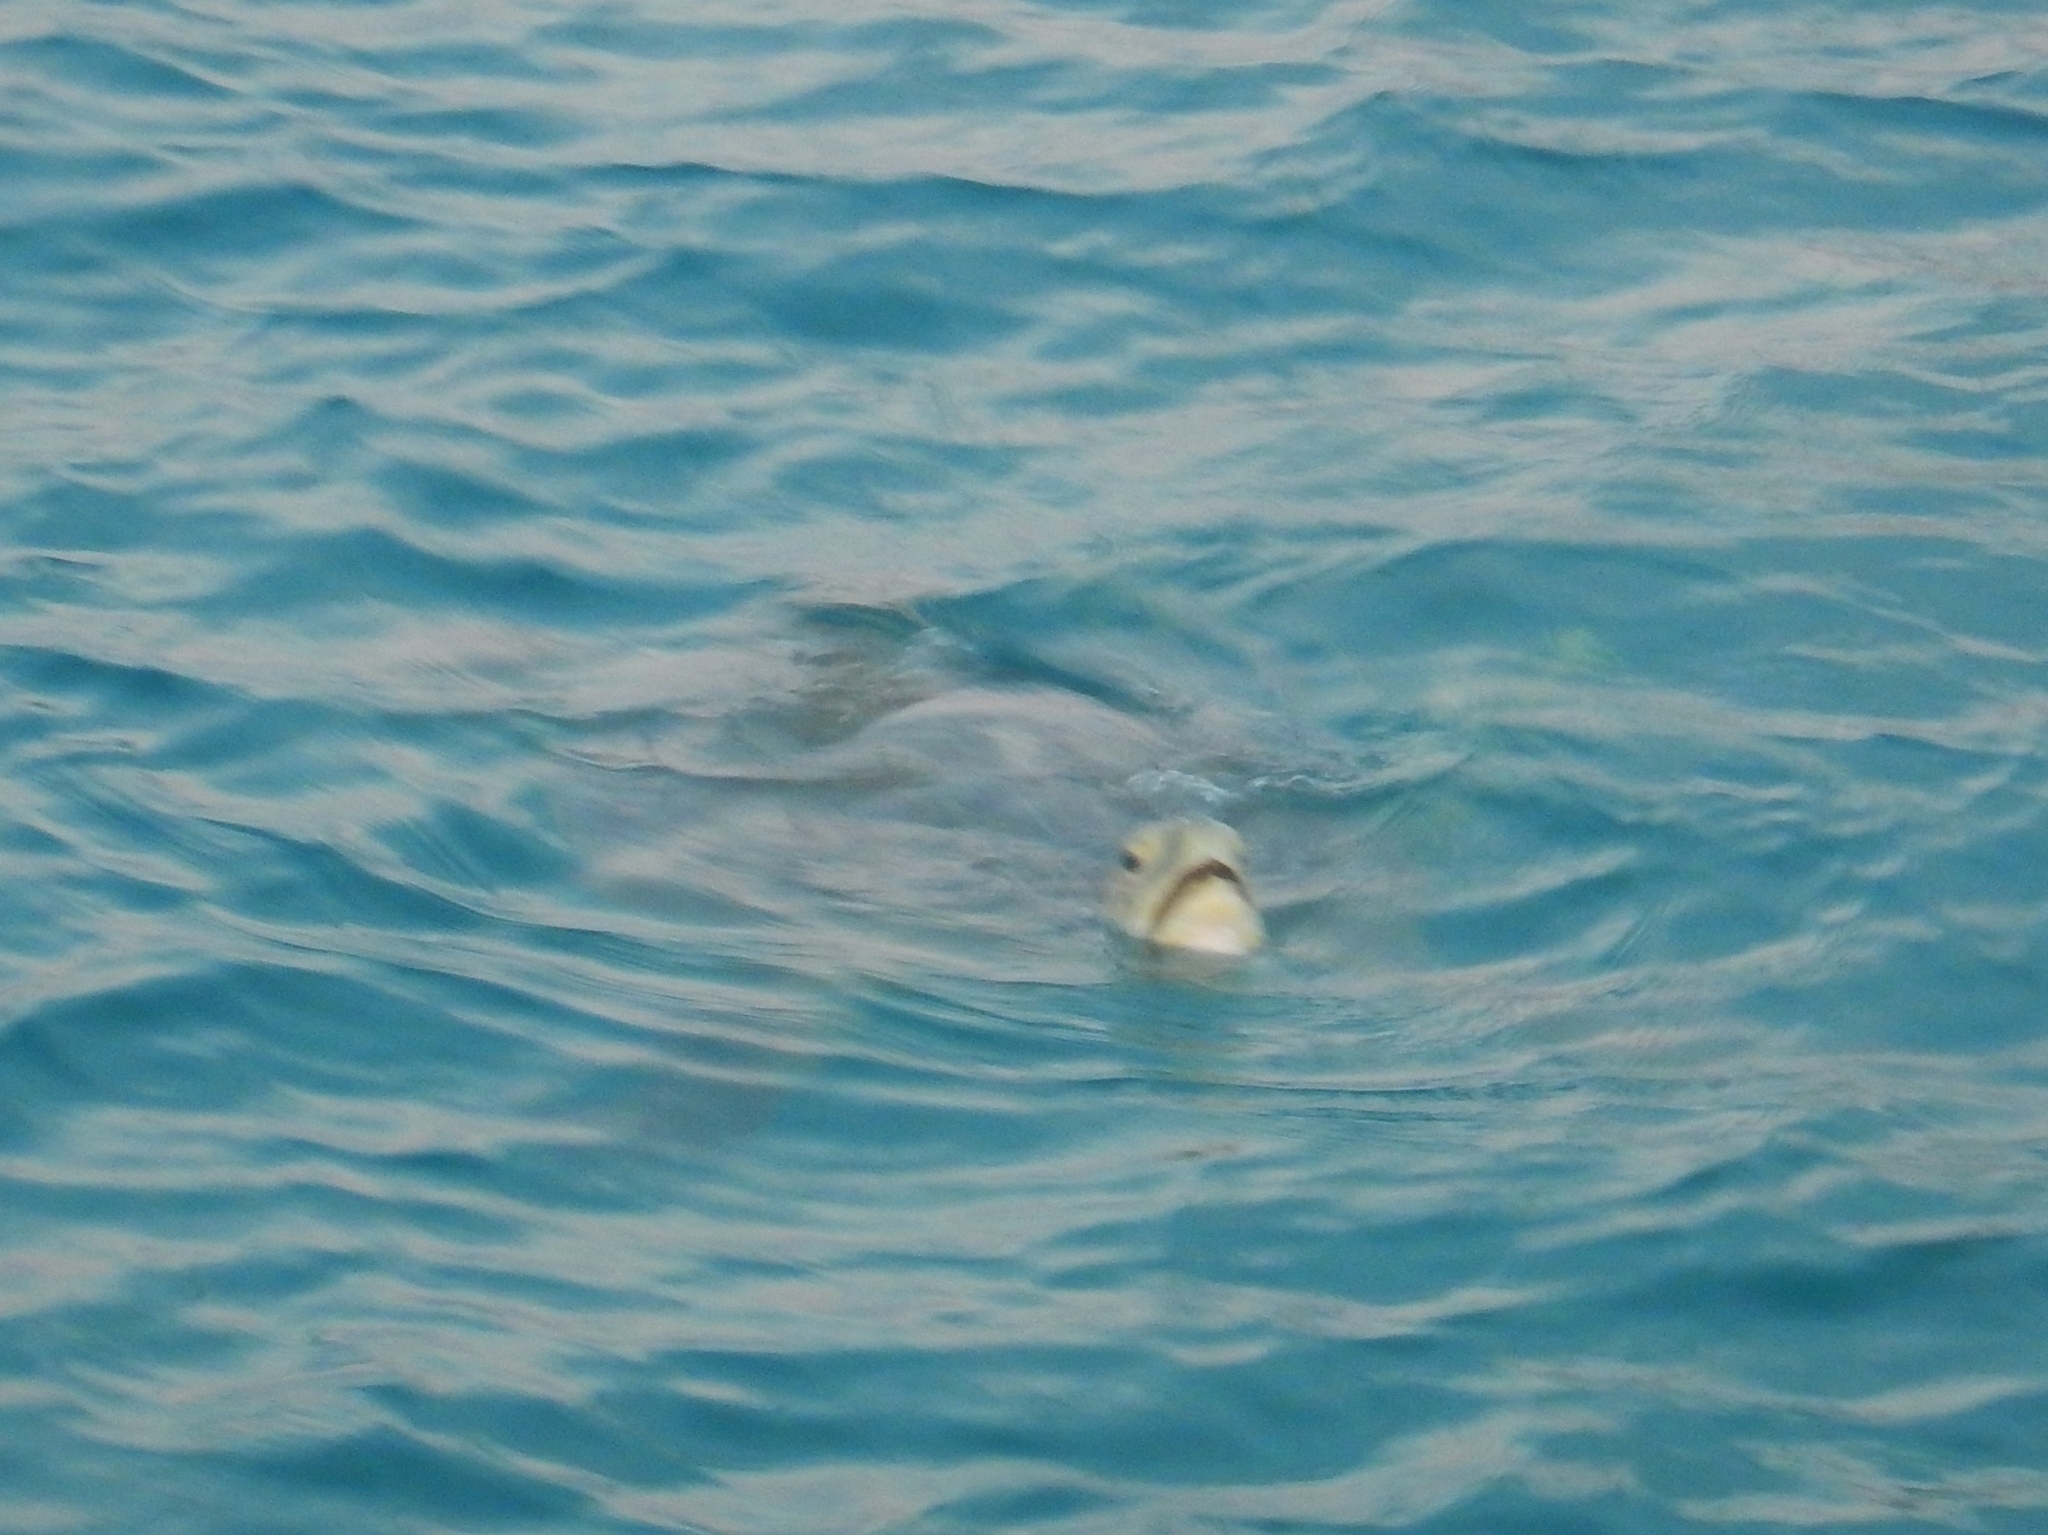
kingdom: Animalia
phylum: Chordata
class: Testudines
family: Cheloniidae
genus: Chelonia
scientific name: Chelonia mydas
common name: Green turtle
